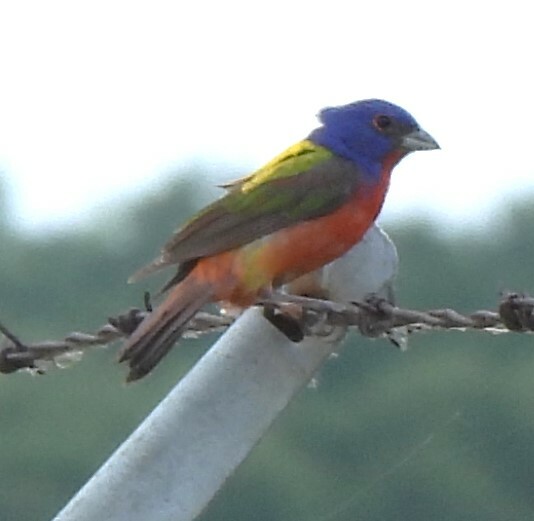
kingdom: Animalia
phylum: Chordata
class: Aves
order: Passeriformes
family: Cardinalidae
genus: Passerina
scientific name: Passerina ciris
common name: Painted bunting
